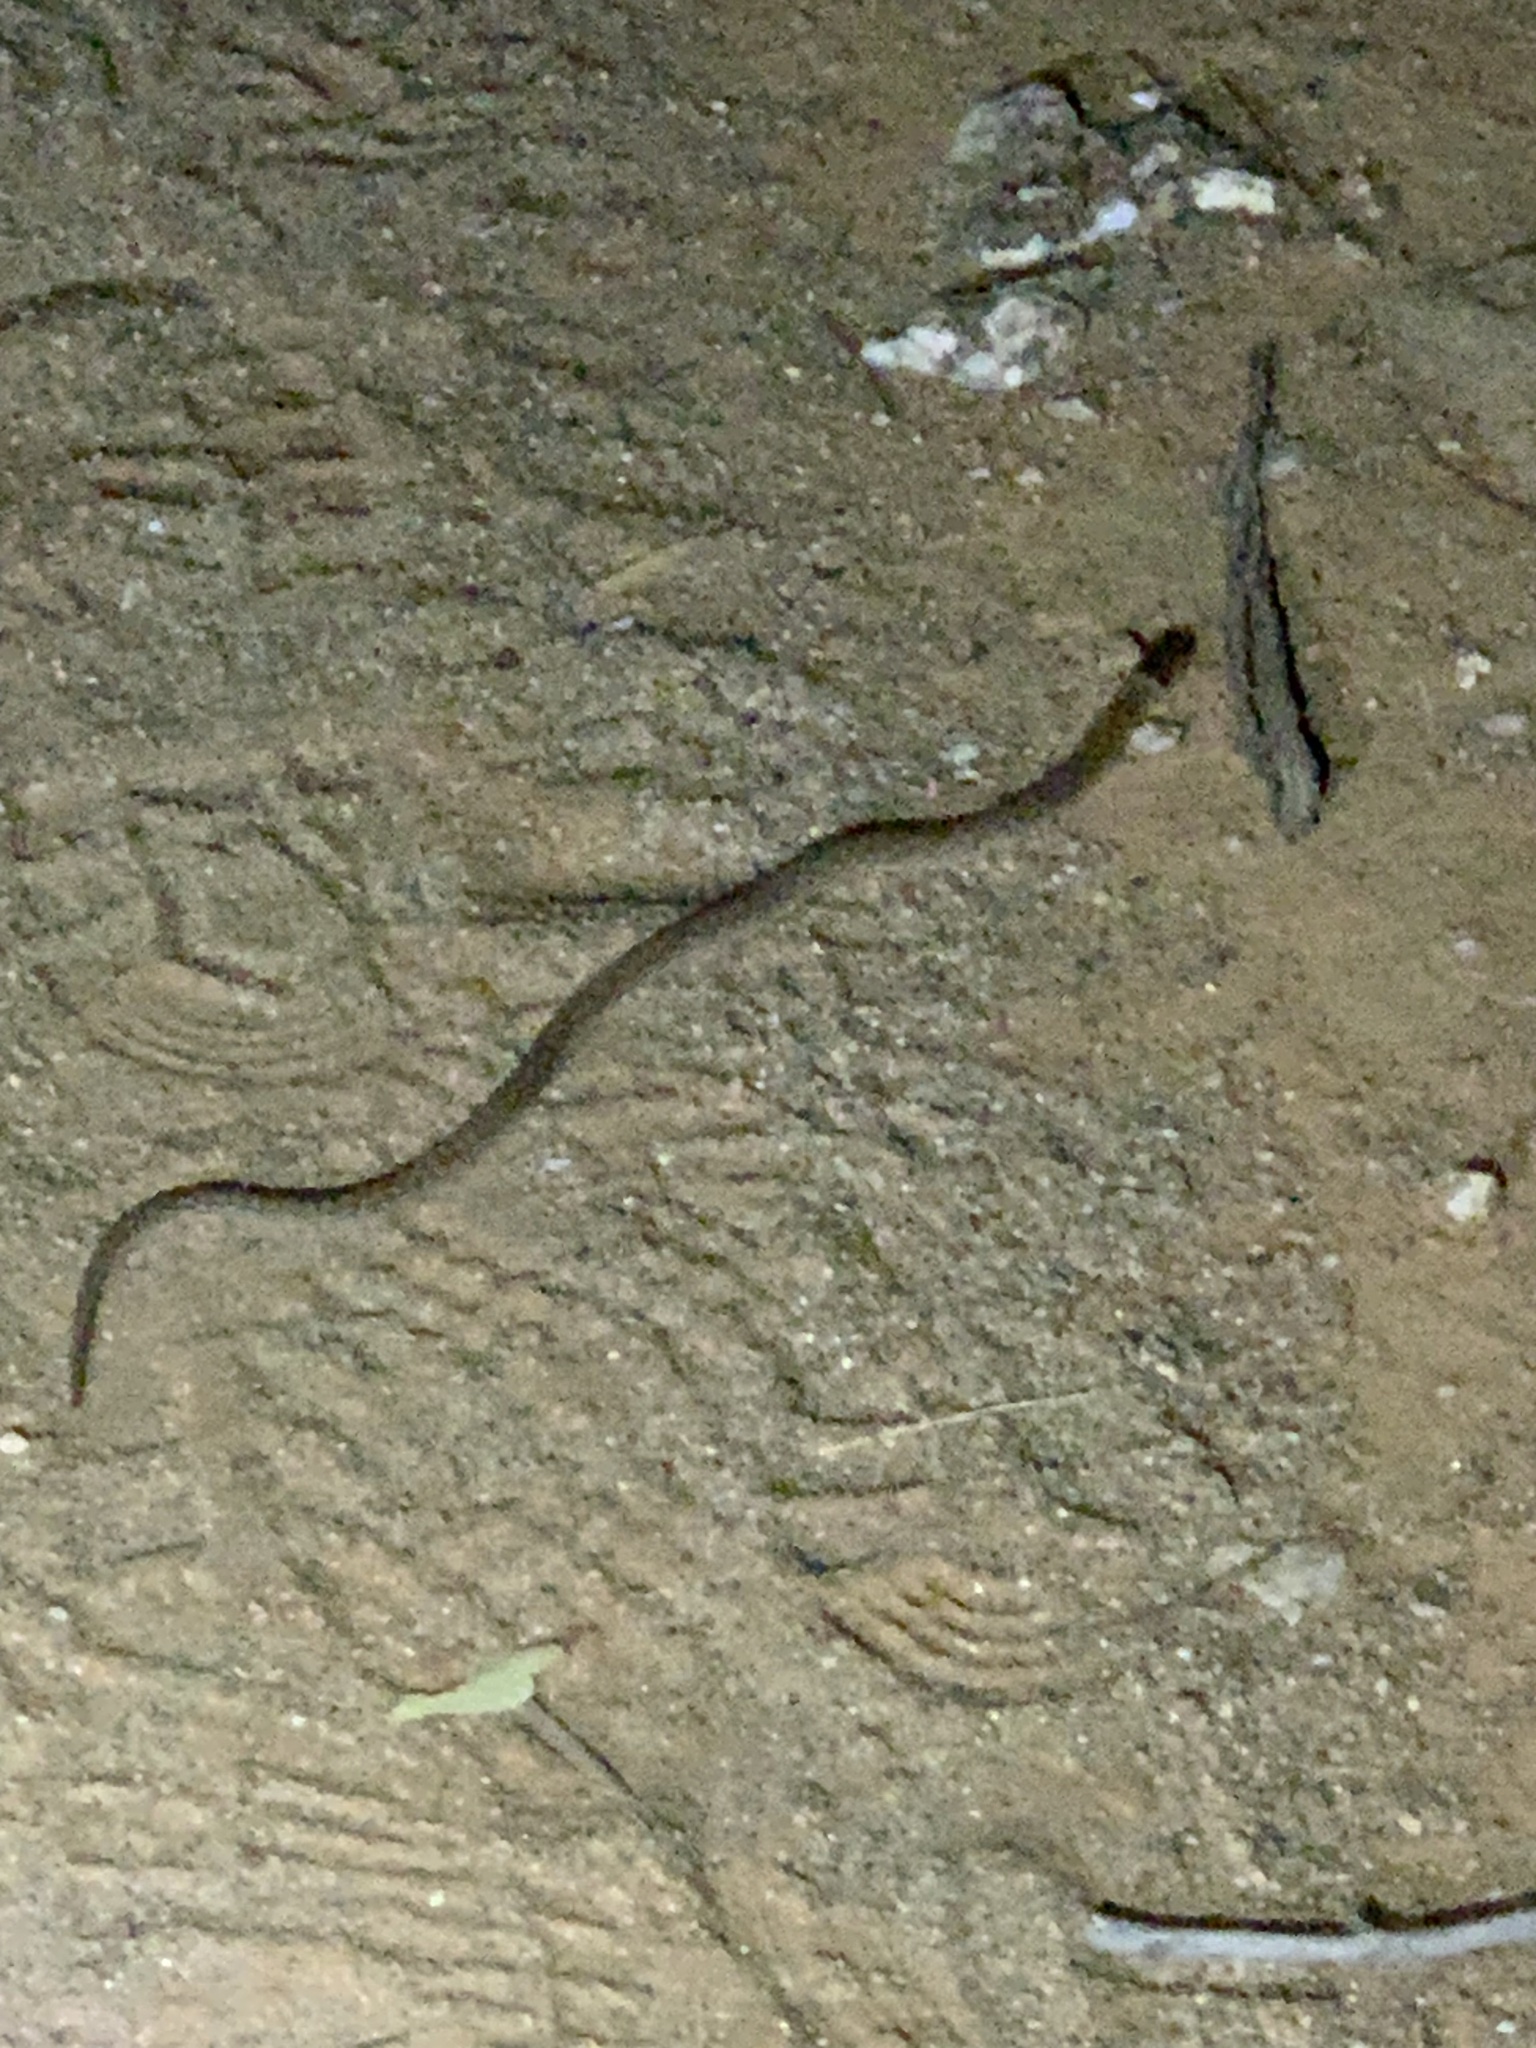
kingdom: Animalia
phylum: Chordata
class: Squamata
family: Pygopodidae
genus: Pygopus
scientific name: Pygopus schraderi
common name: Eastern scaly-foot
